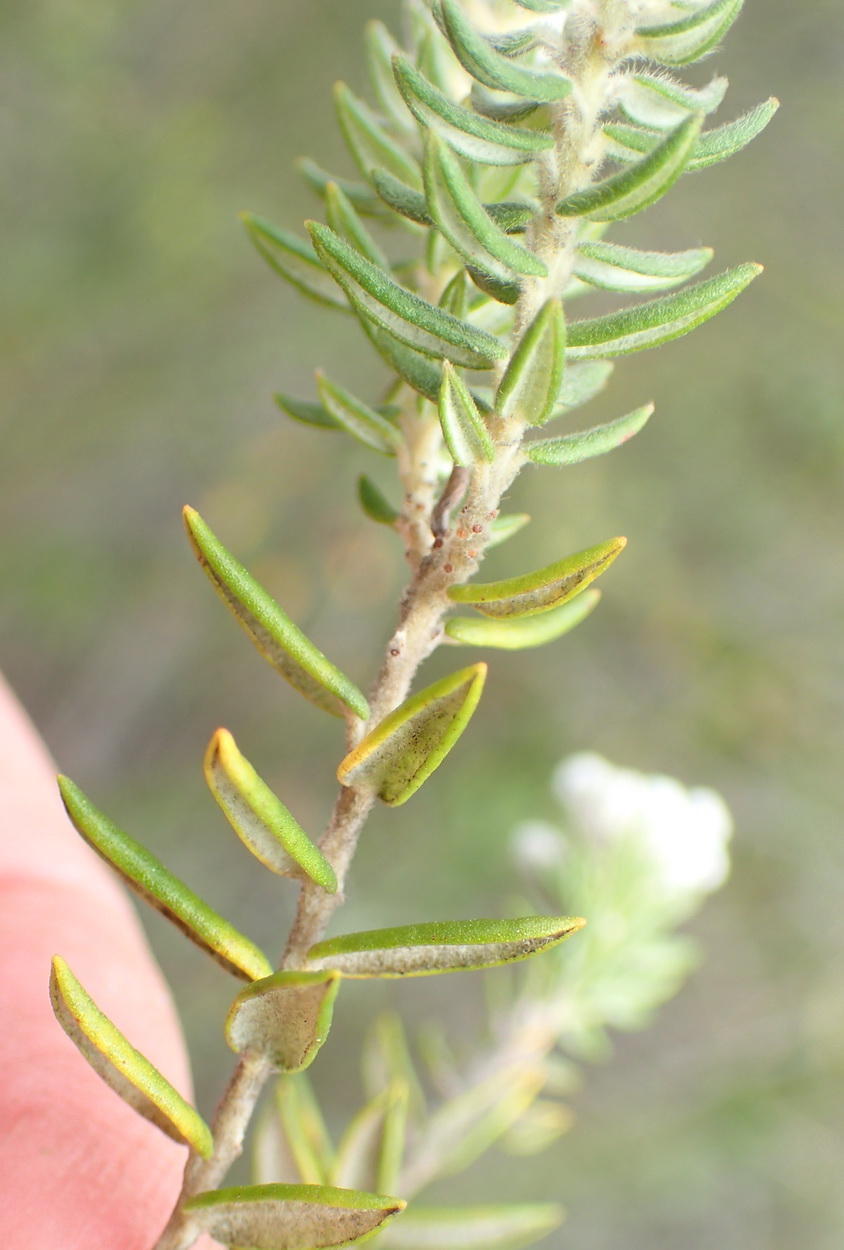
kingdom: Plantae
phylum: Tracheophyta
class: Magnoliopsida
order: Rosales
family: Rhamnaceae
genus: Phylica
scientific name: Phylica axillaris
